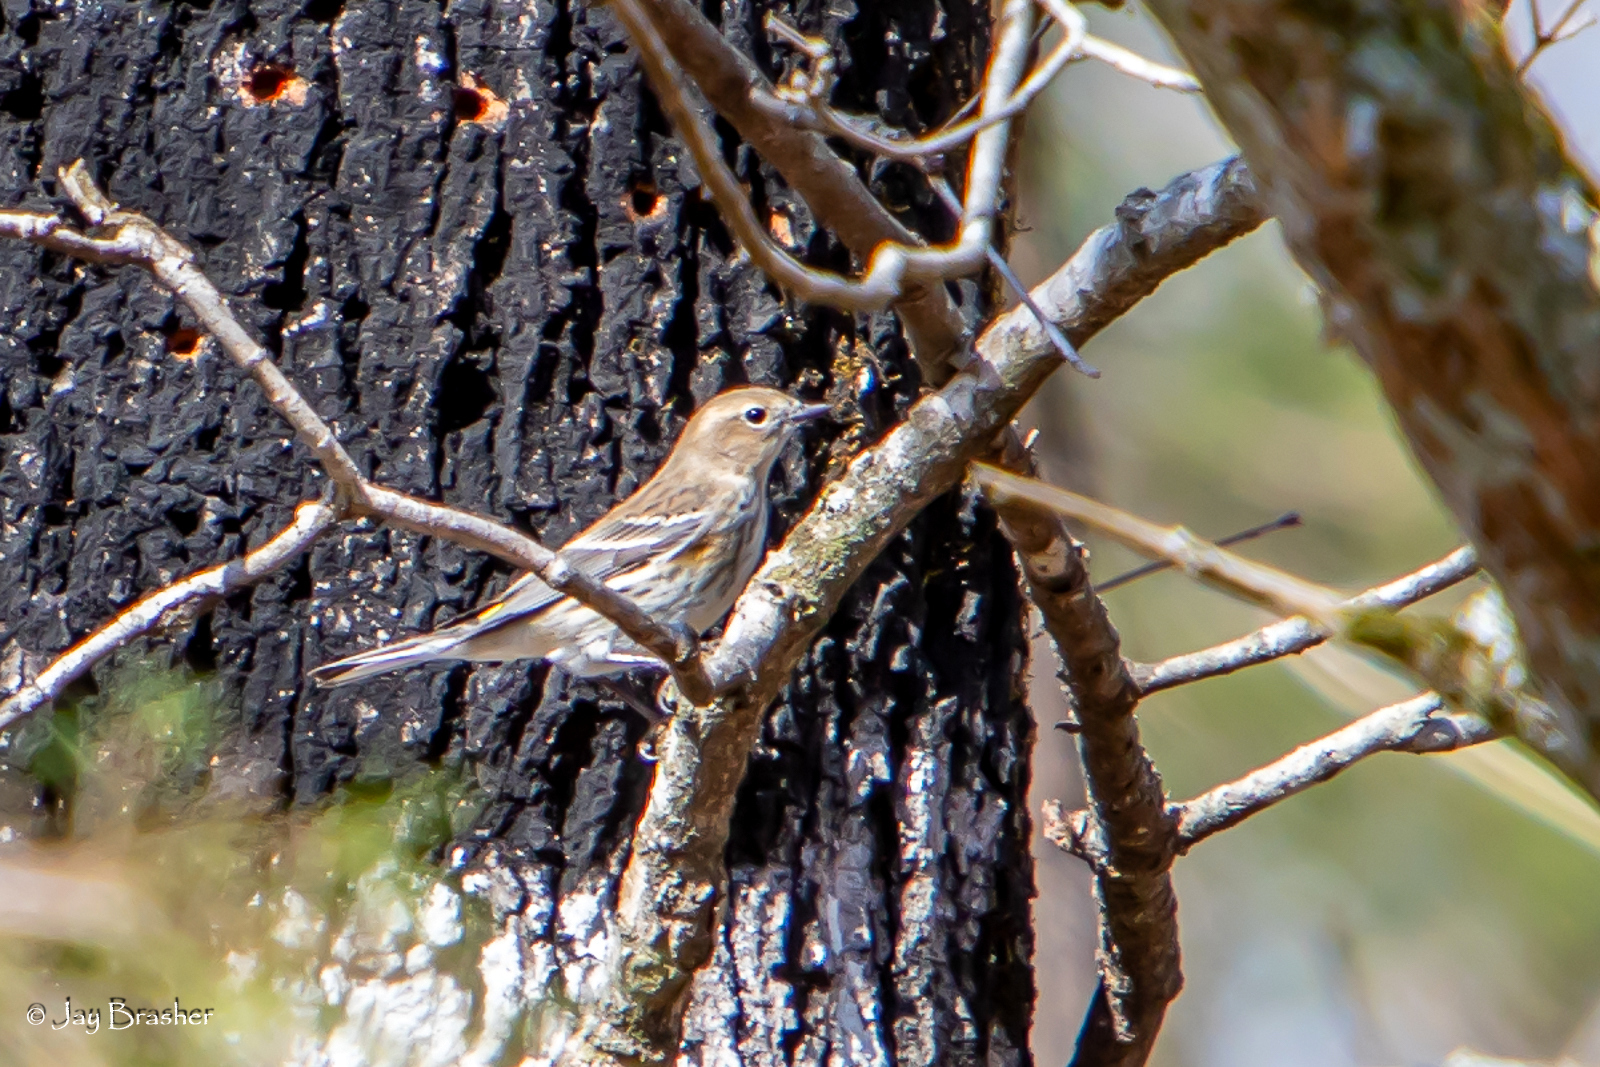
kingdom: Animalia
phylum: Chordata
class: Aves
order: Passeriformes
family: Parulidae
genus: Setophaga
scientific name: Setophaga coronata
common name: Myrtle warbler
